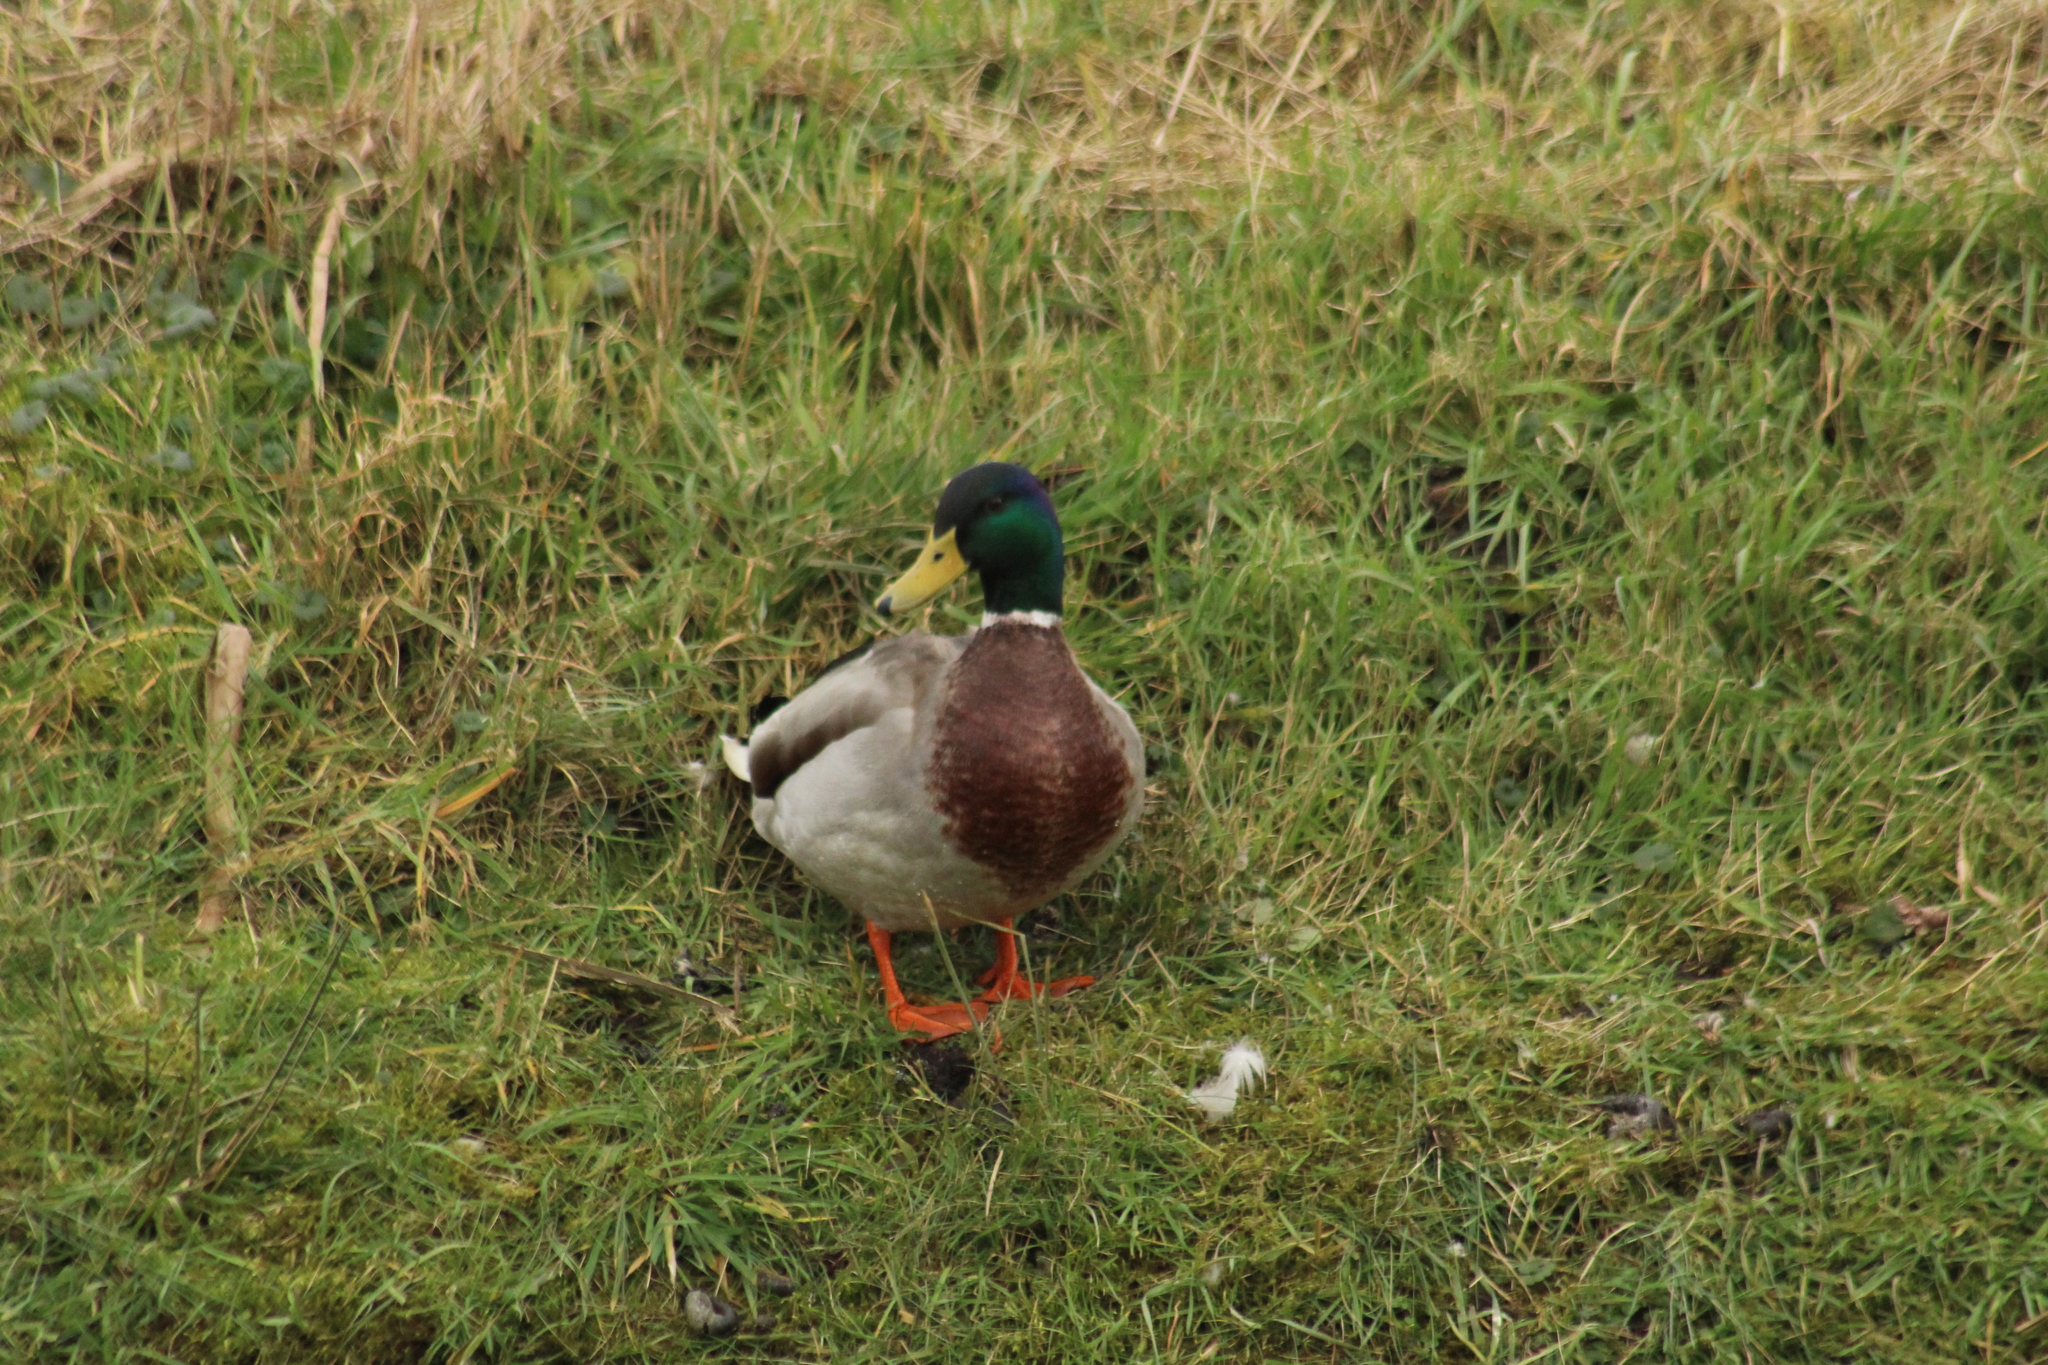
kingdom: Animalia
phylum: Chordata
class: Aves
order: Anseriformes
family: Anatidae
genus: Anas
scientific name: Anas platyrhynchos
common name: Mallard
